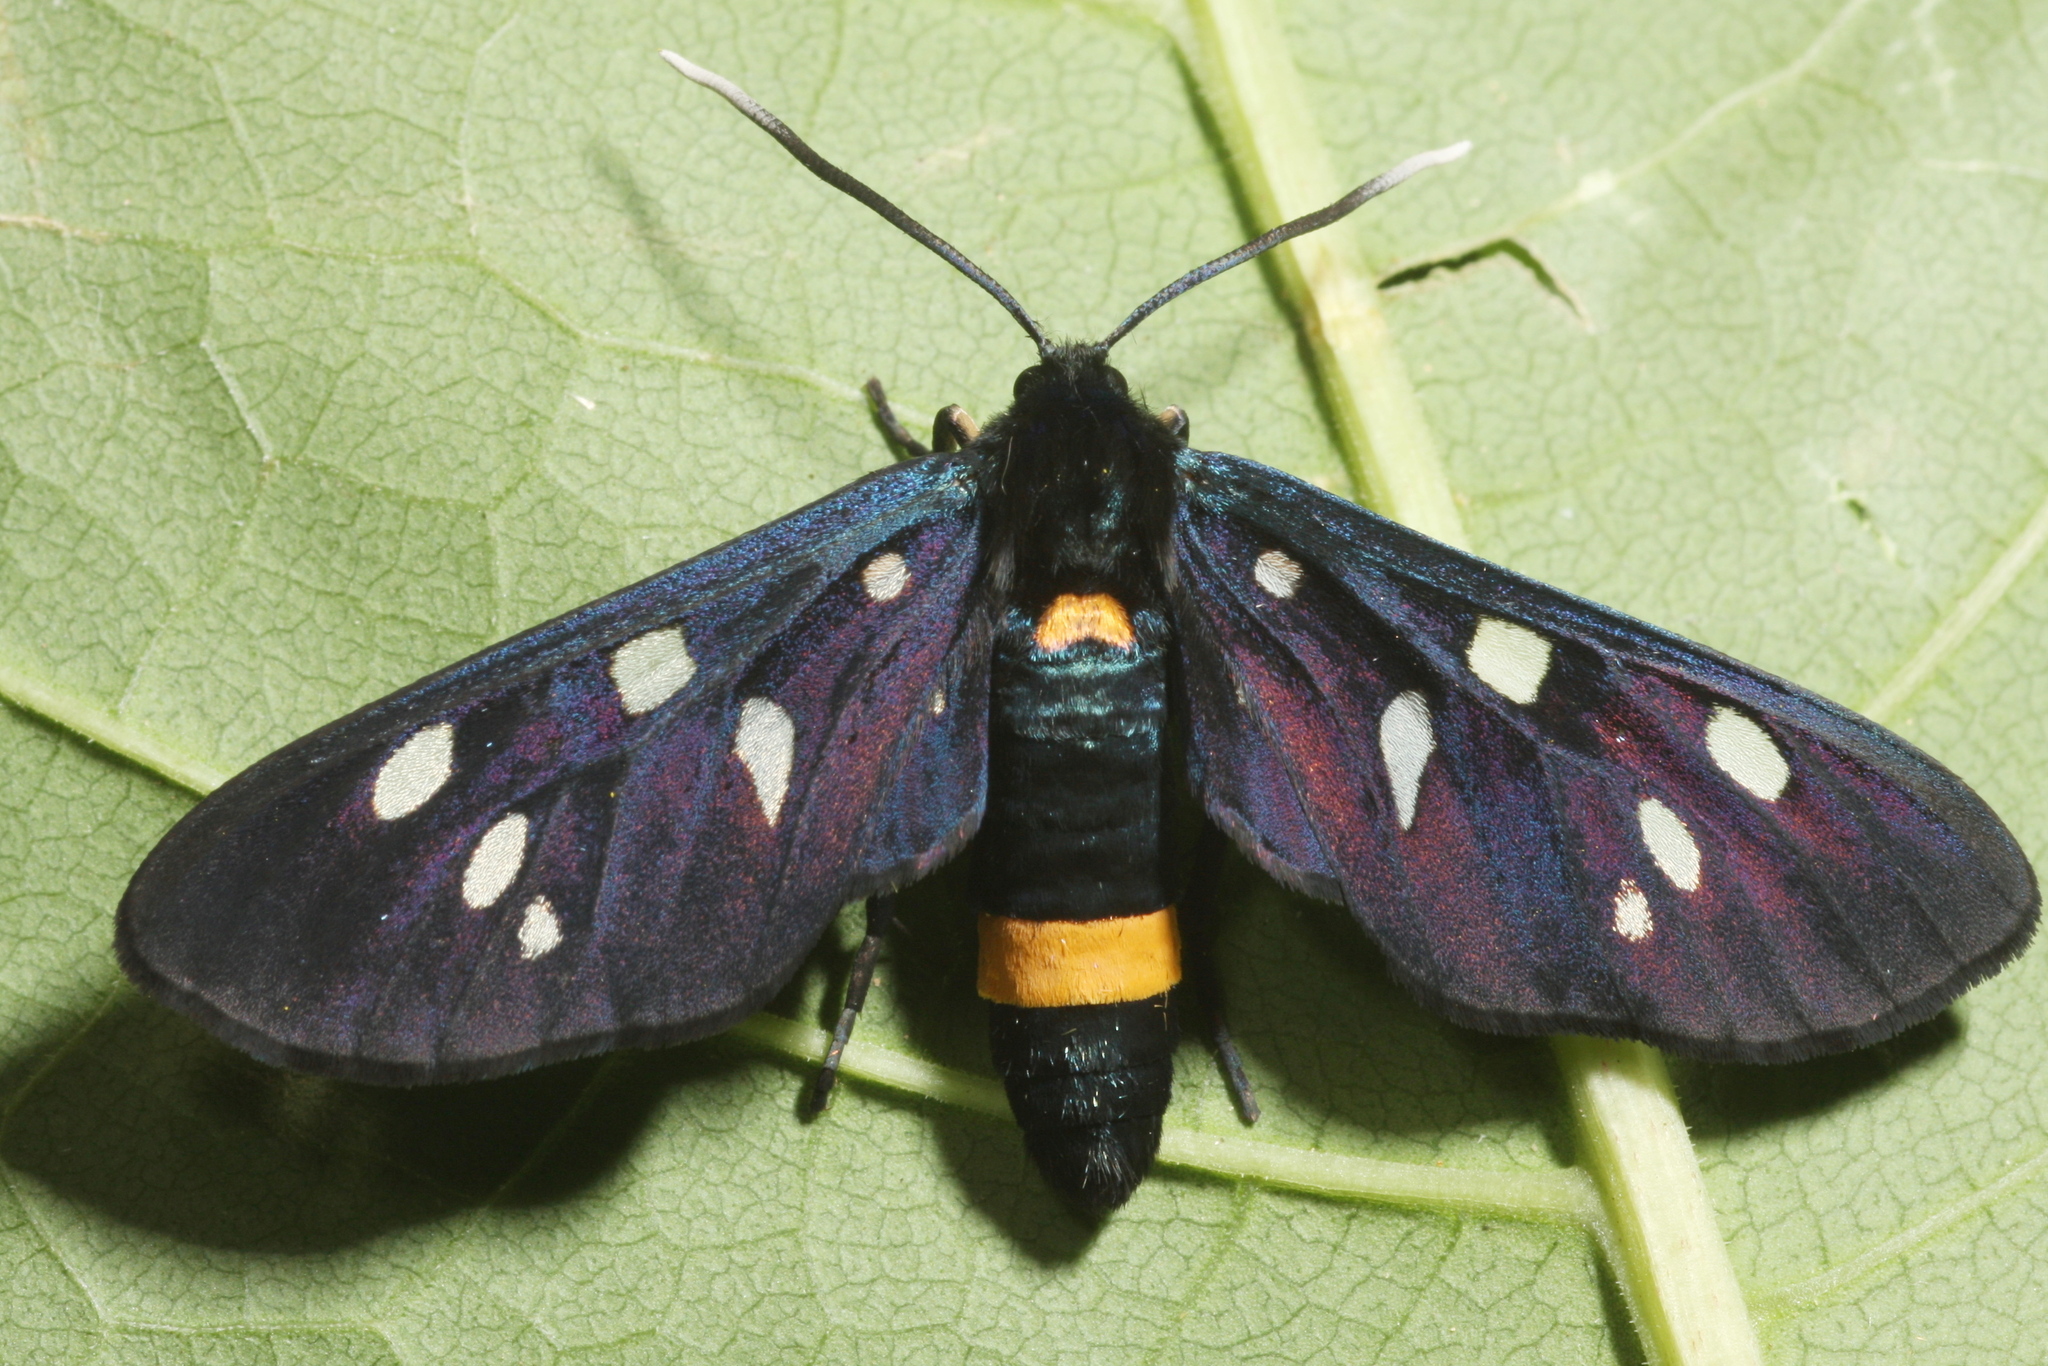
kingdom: Animalia
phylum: Arthropoda
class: Insecta
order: Lepidoptera
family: Erebidae
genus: Amata
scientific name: Amata phegea
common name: Nine-spotted
